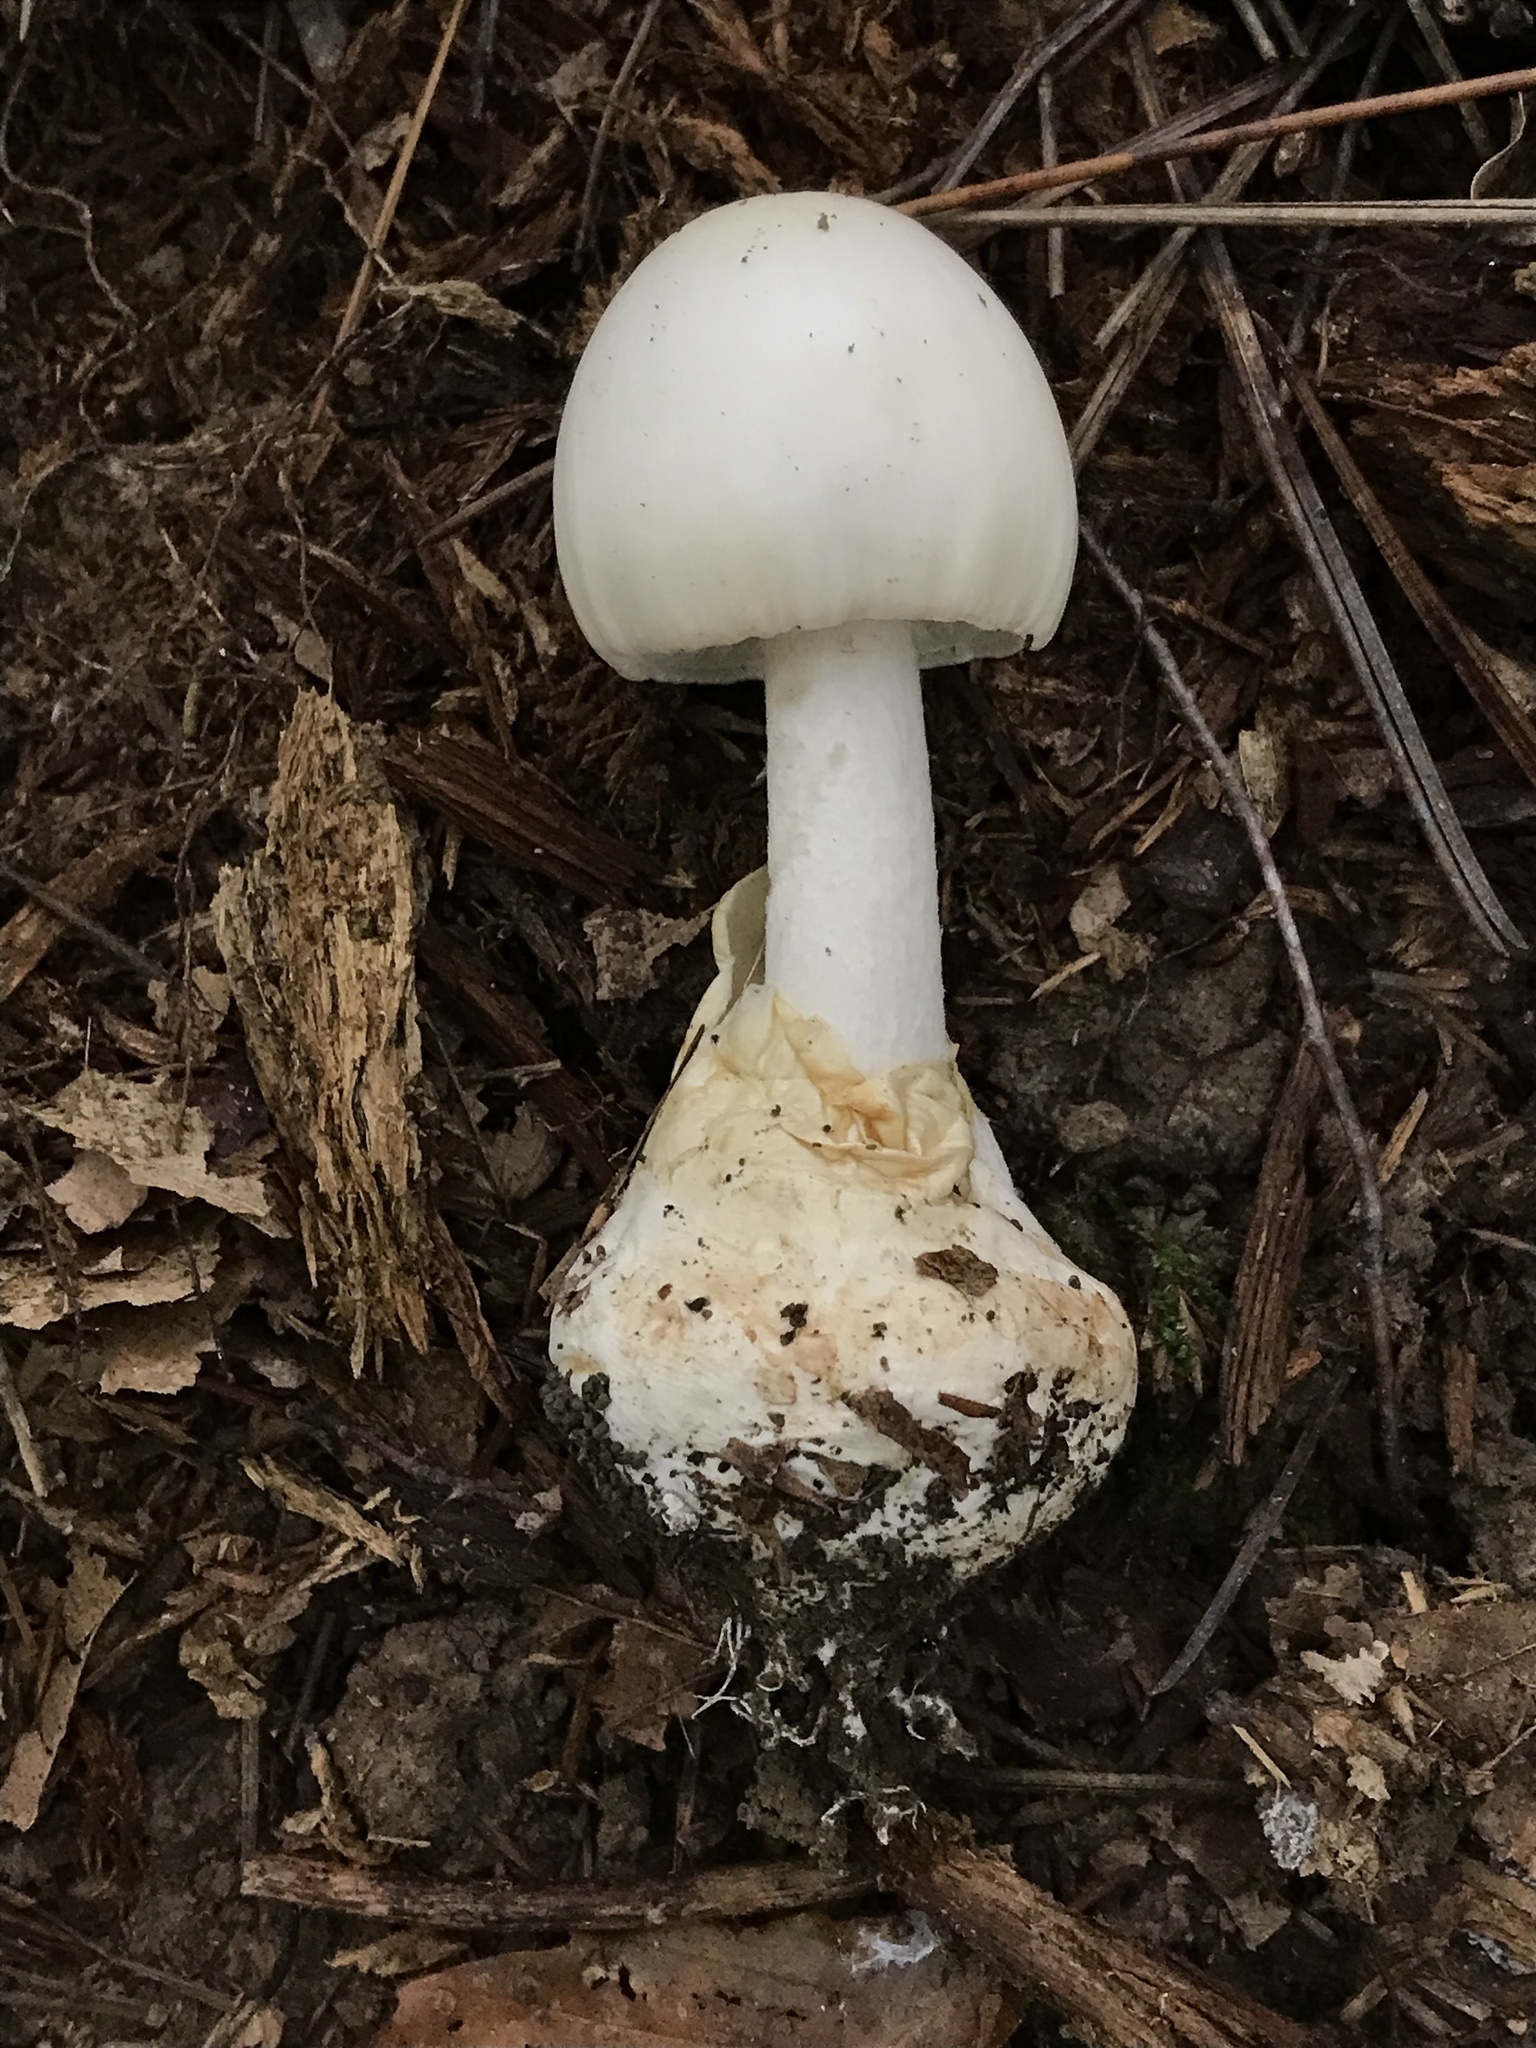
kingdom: Fungi
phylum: Basidiomycota
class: Agaricomycetes
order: Agaricales
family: Amanitaceae
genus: Amanita
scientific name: Amanita magnivelaris
